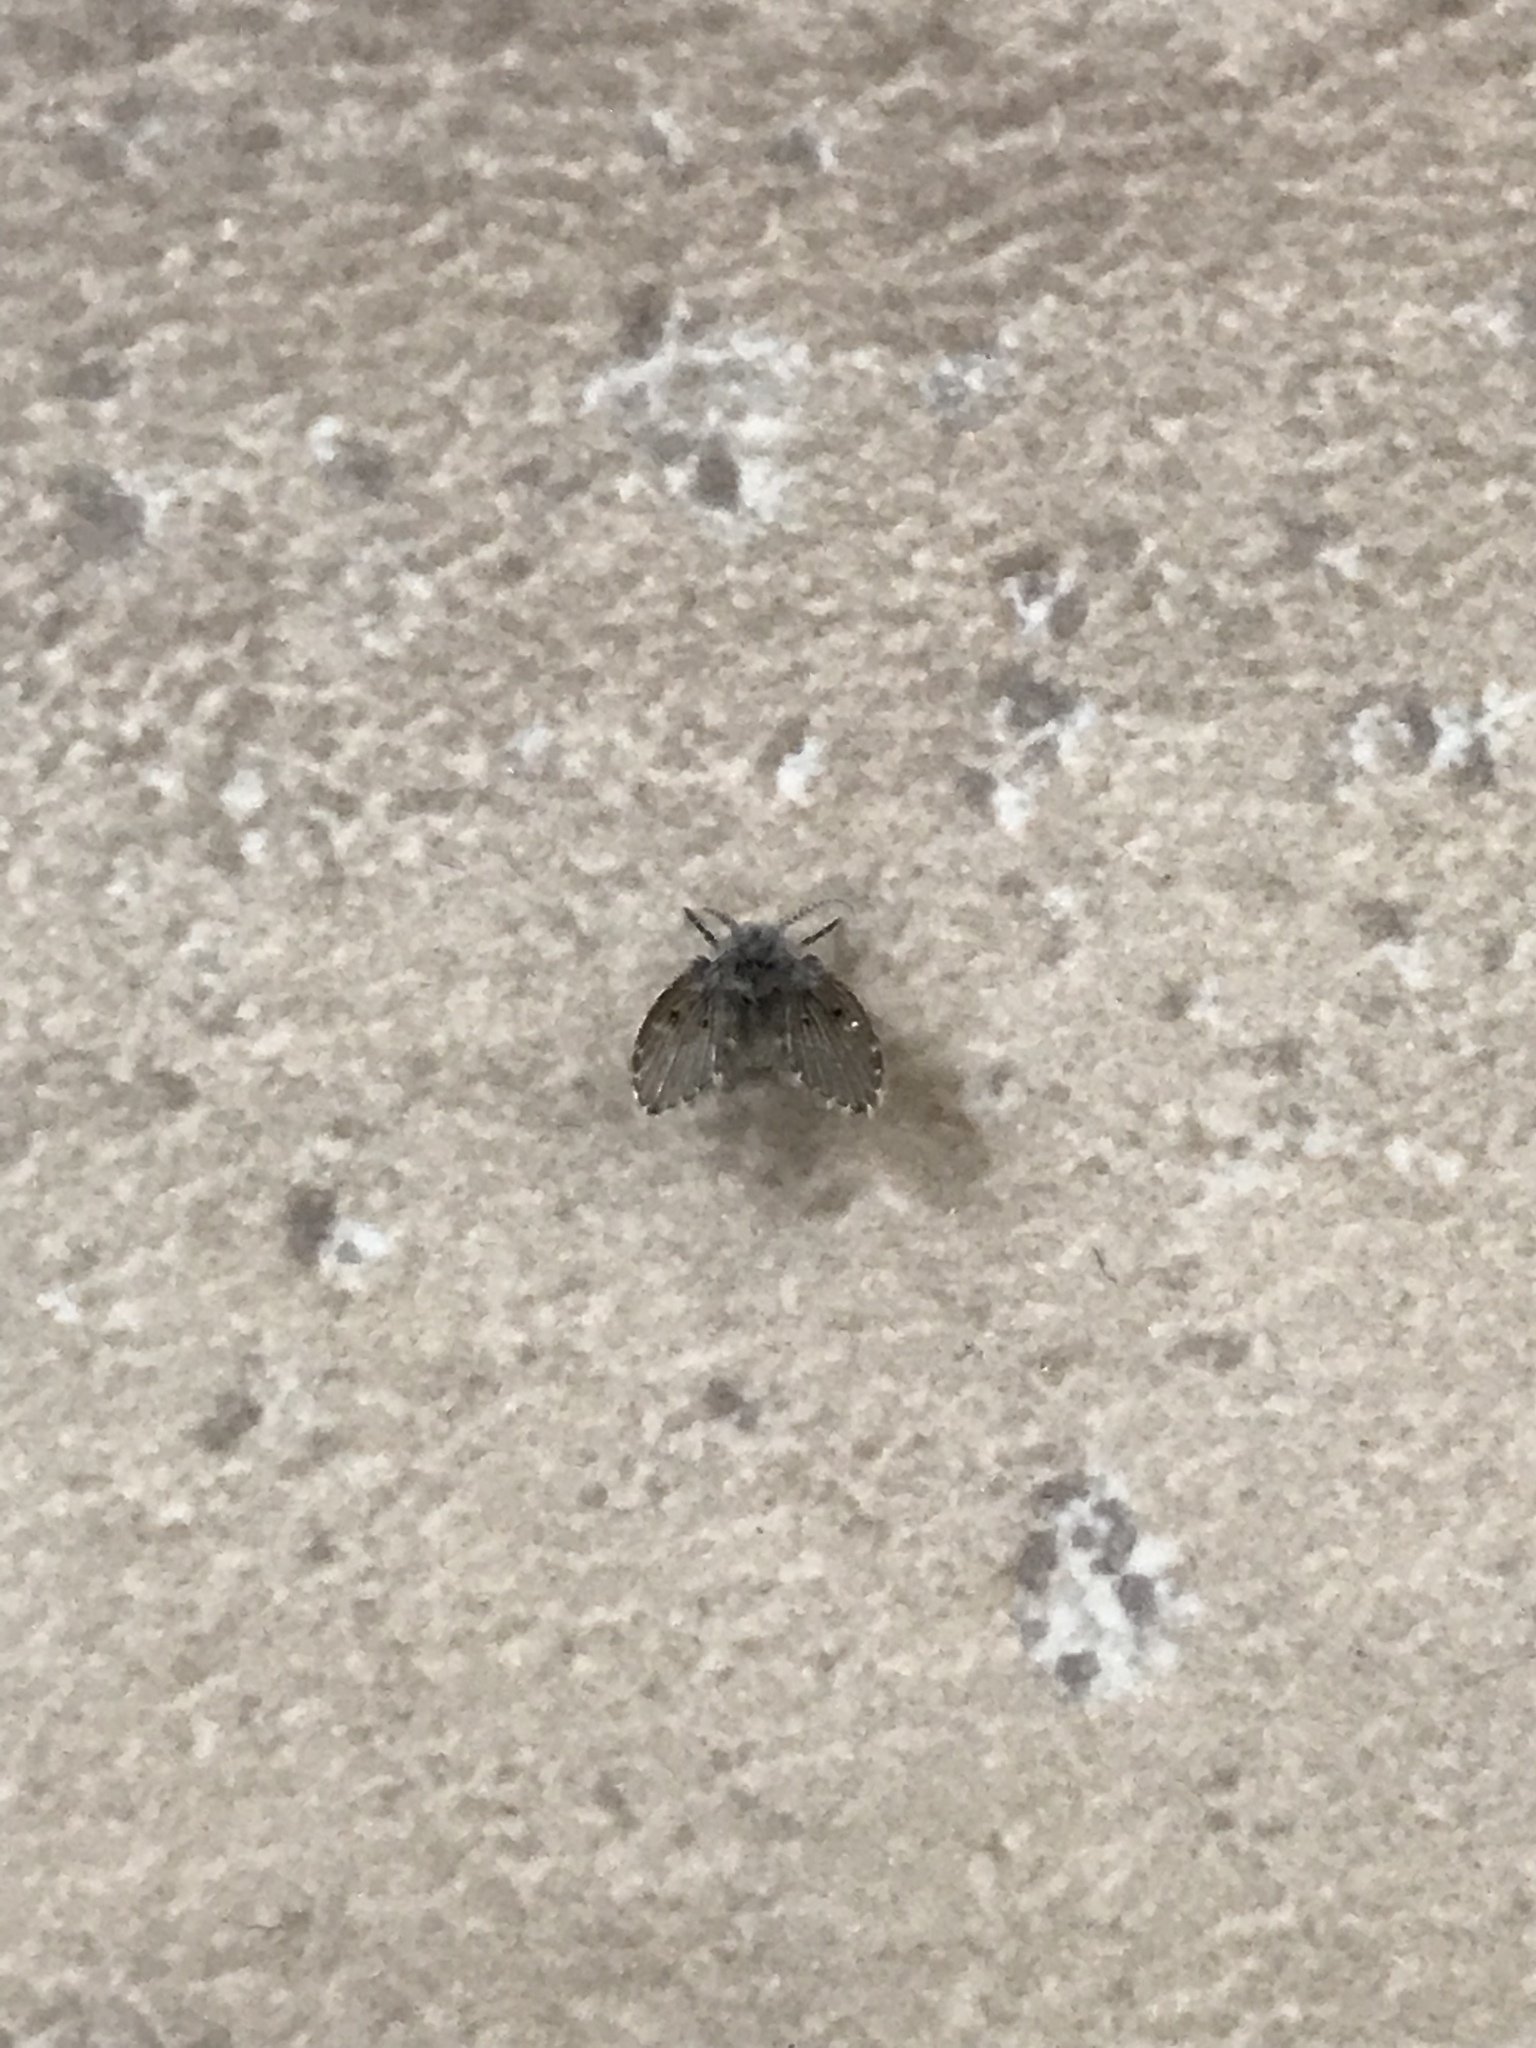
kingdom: Animalia
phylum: Arthropoda
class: Insecta
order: Diptera
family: Psychodidae
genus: Clogmia
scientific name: Clogmia albipunctatus
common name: White-spotted moth fly
